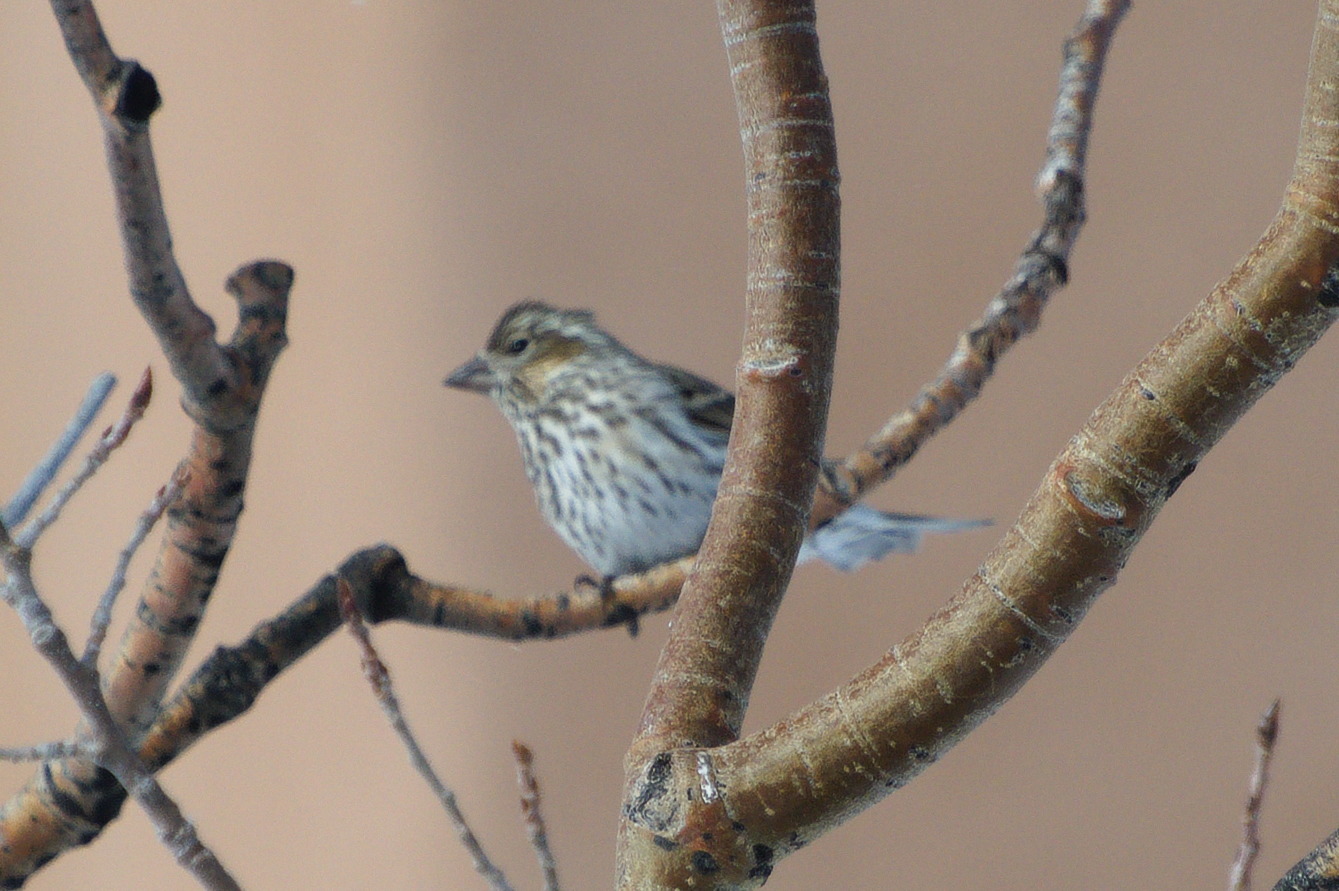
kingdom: Animalia
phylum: Chordata
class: Aves
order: Passeriformes
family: Fringillidae
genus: Haemorhous
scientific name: Haemorhous cassinii
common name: Cassin's finch
